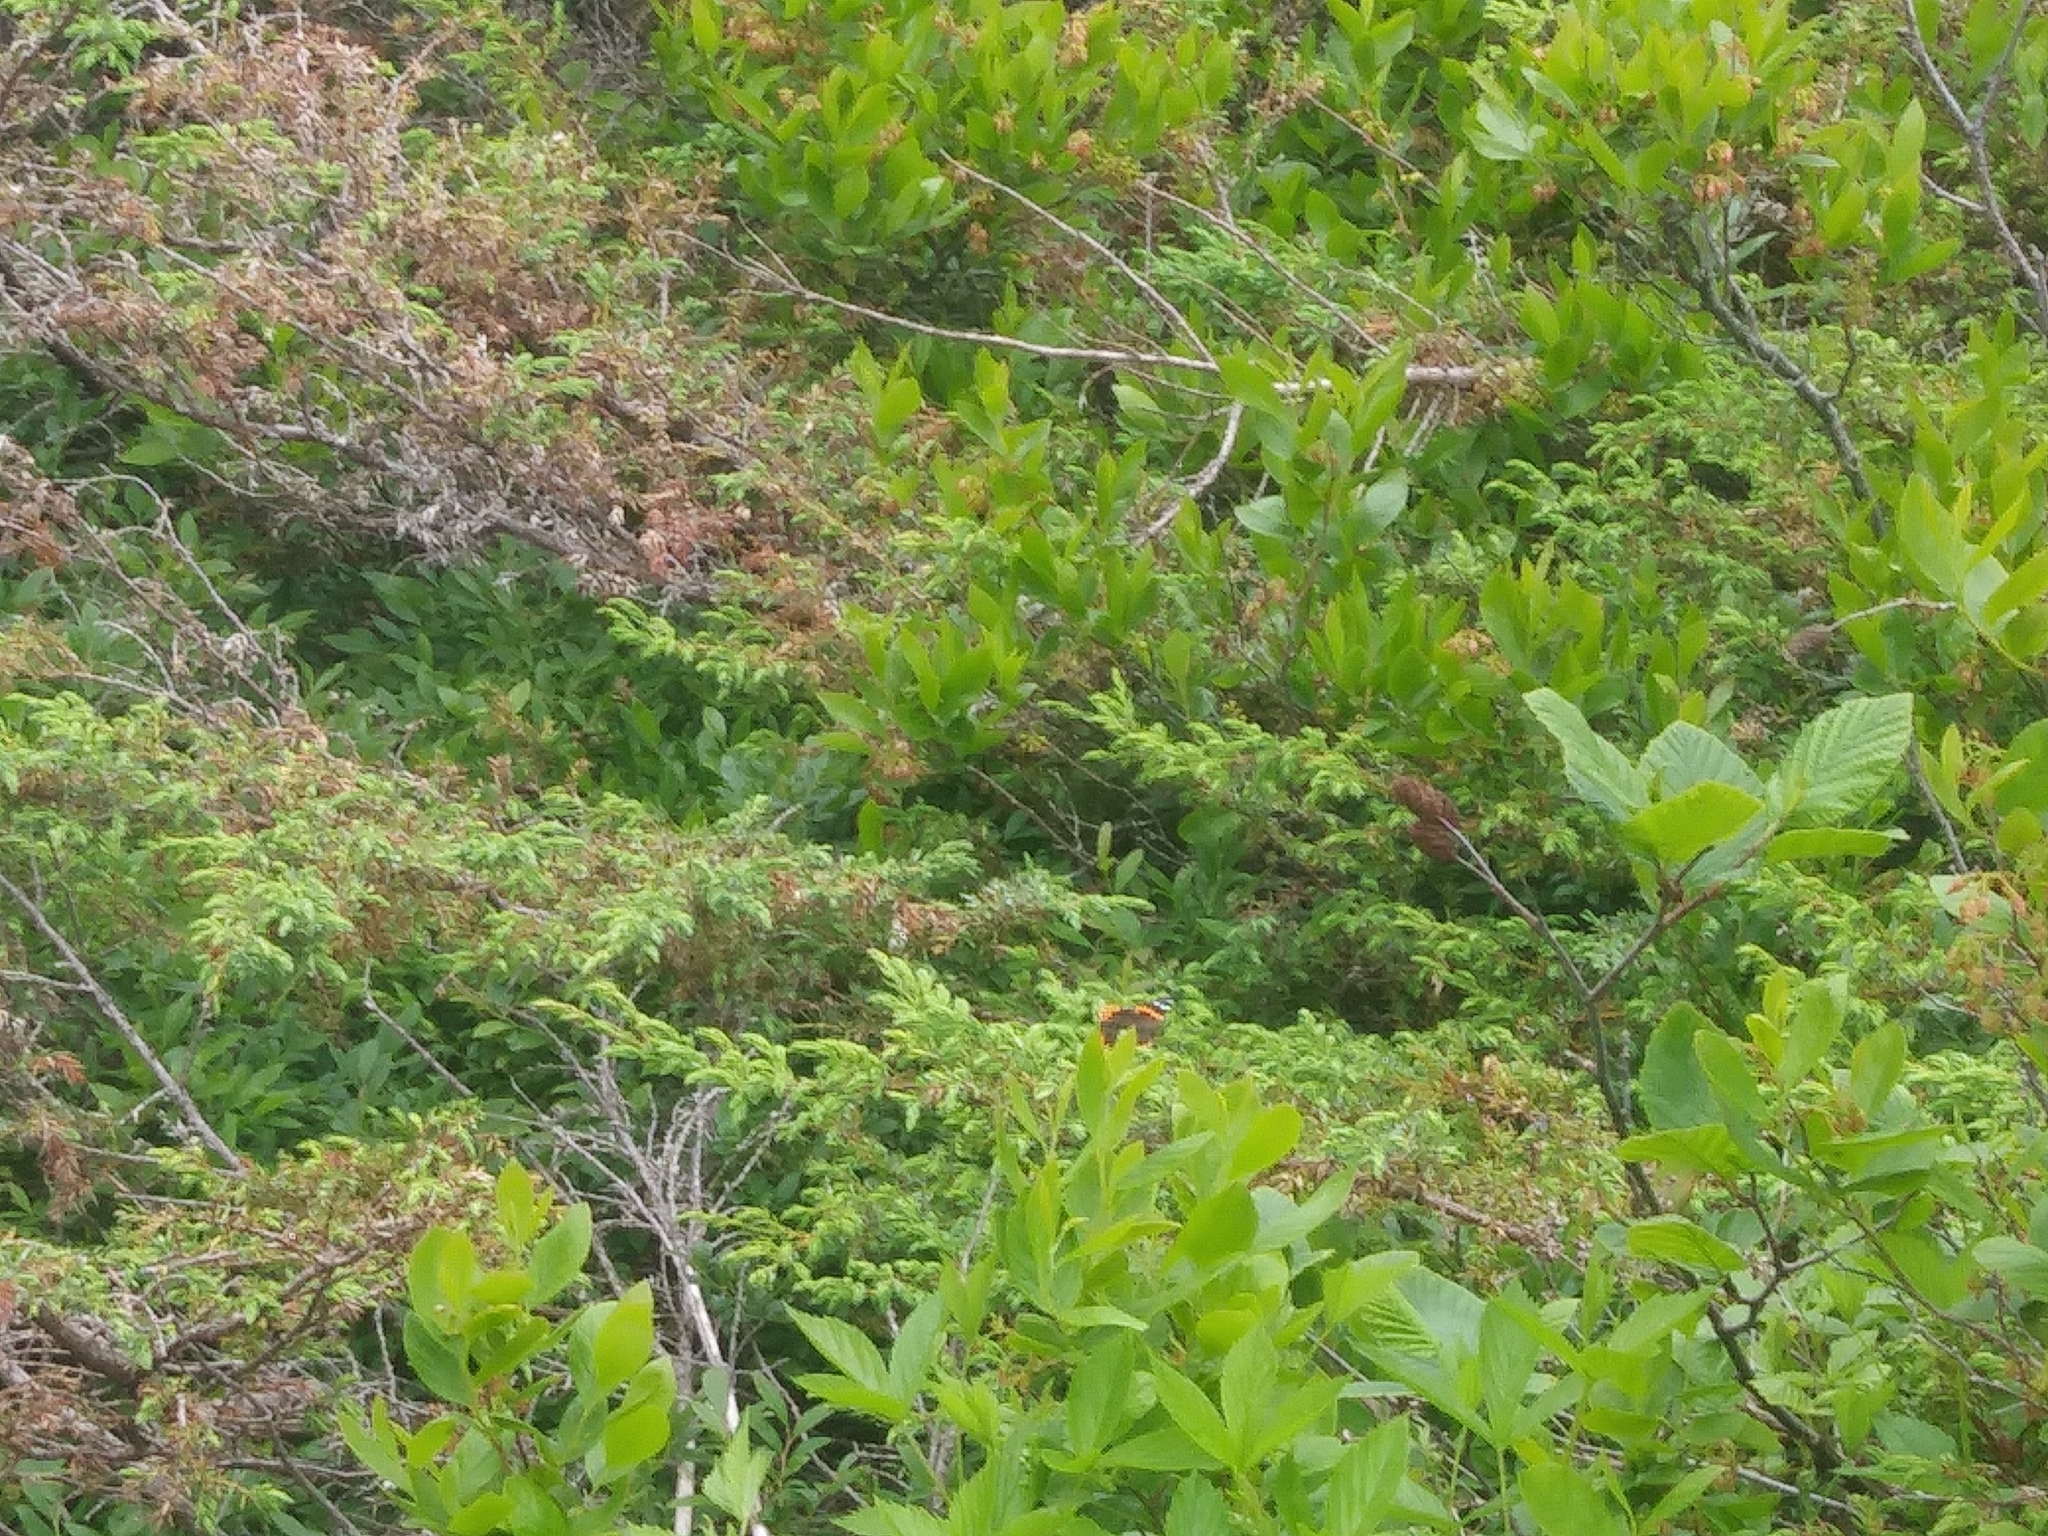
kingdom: Animalia
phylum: Arthropoda
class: Insecta
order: Lepidoptera
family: Nymphalidae
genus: Vanessa
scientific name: Vanessa atalanta
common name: Red admiral
